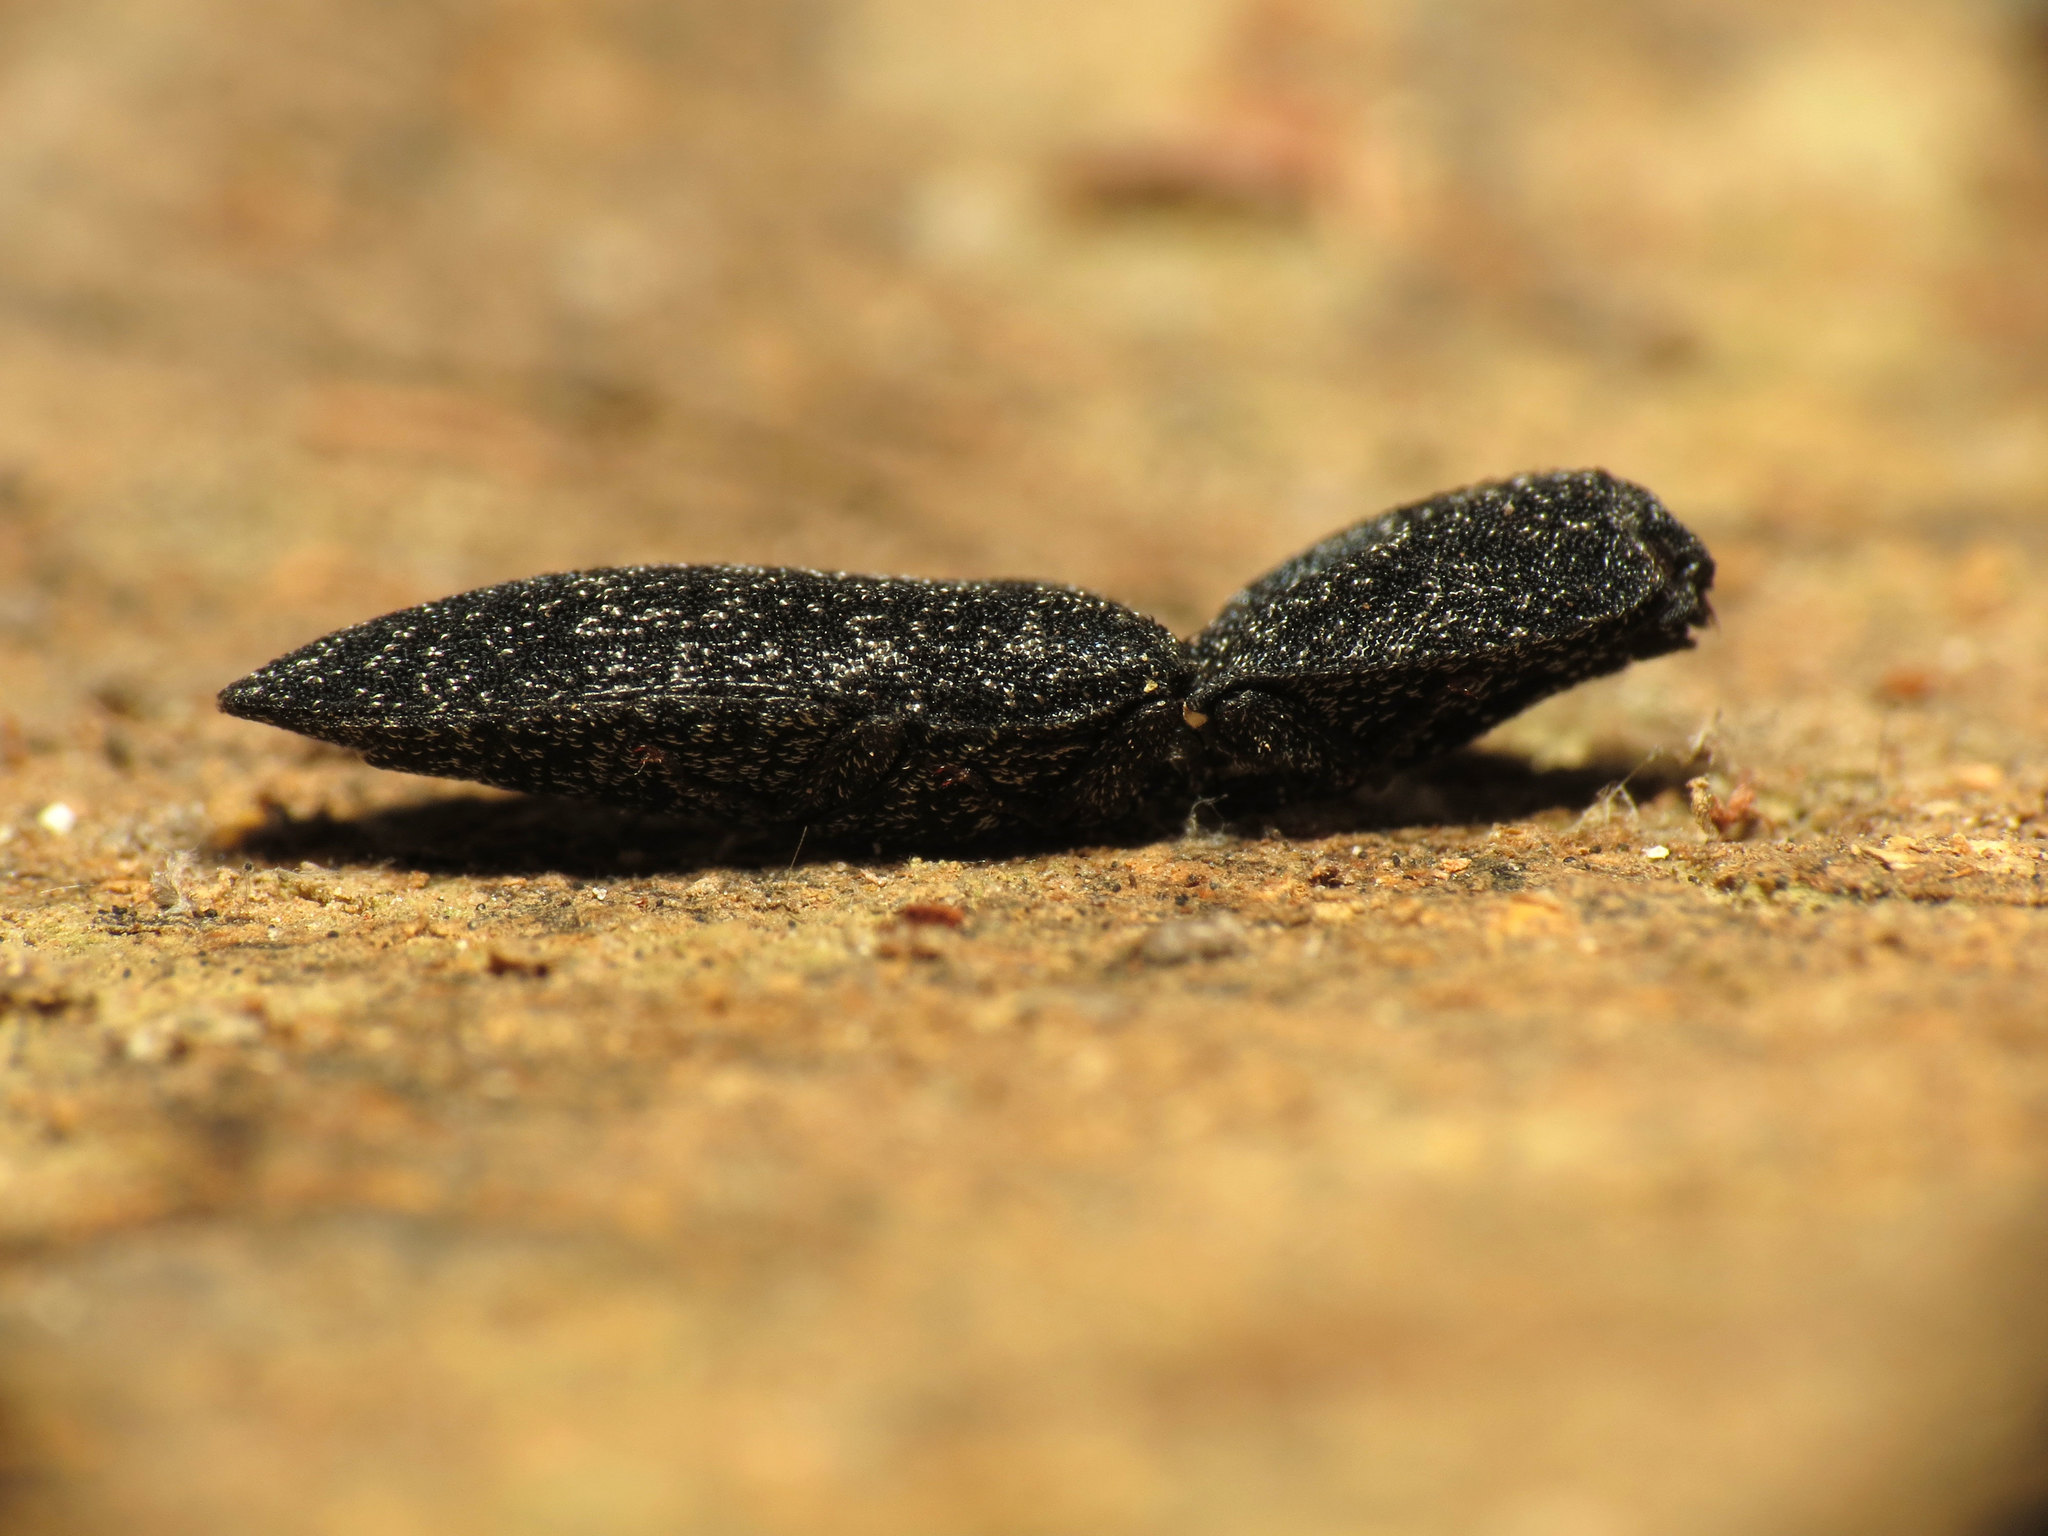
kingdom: Animalia
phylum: Arthropoda
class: Insecta
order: Coleoptera
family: Elateridae
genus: Lacon
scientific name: Lacon punctatus
